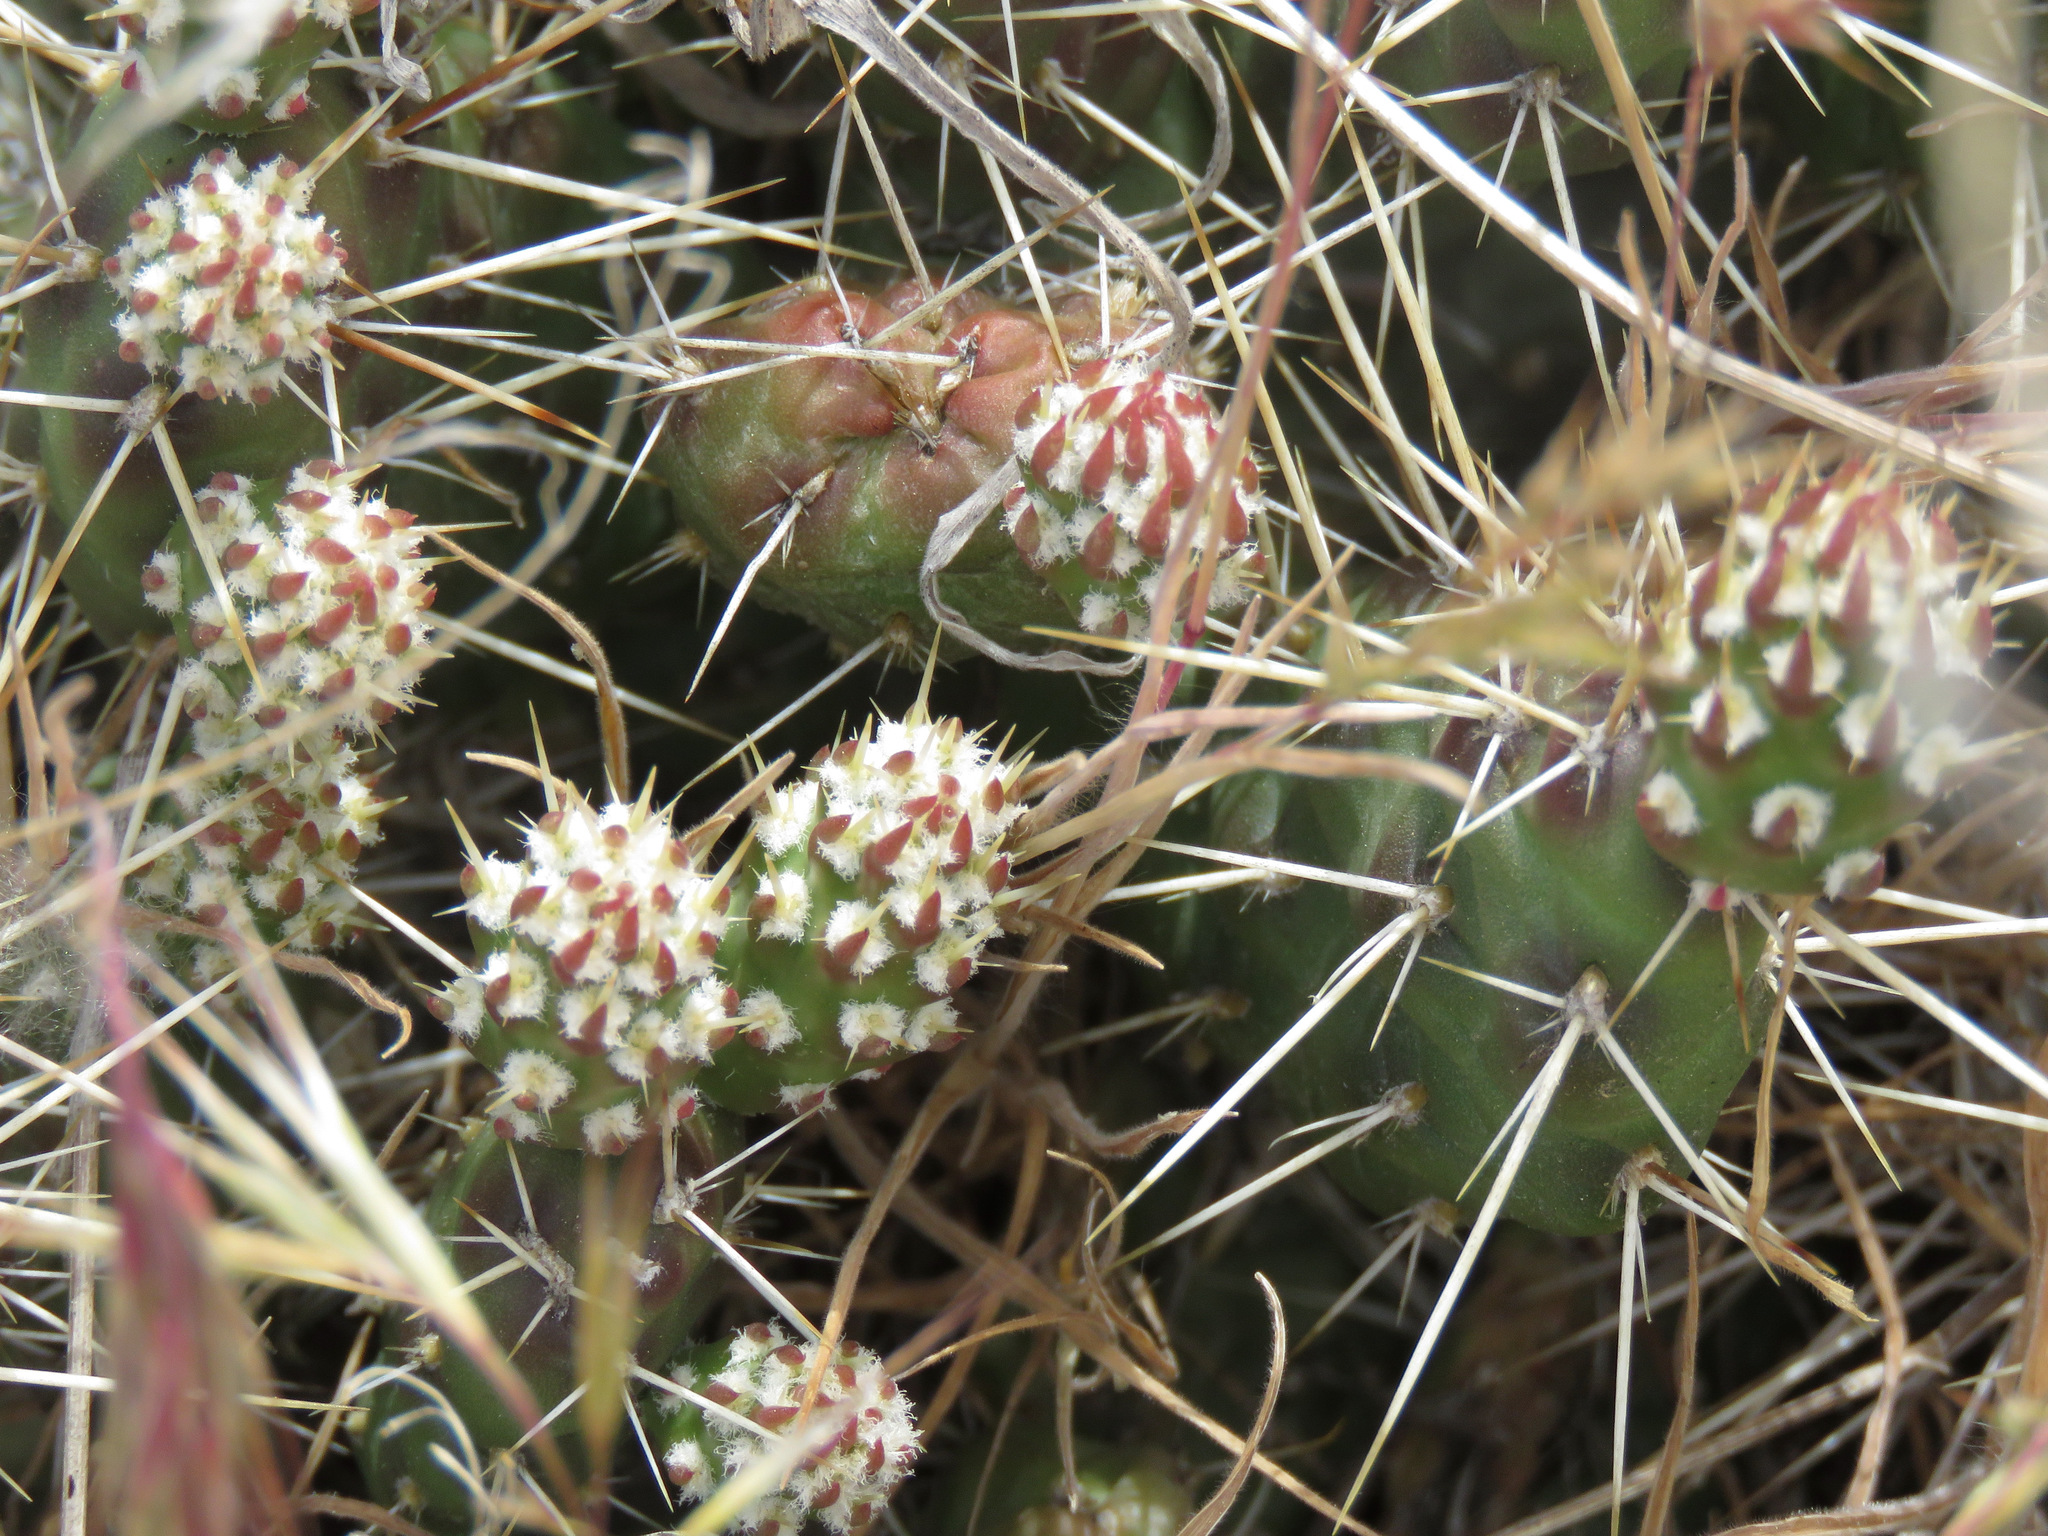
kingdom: Plantae
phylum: Tracheophyta
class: Magnoliopsida
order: Caryophyllales
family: Cactaceae
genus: Opuntia
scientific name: Opuntia fragilis
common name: Brittle cactus
